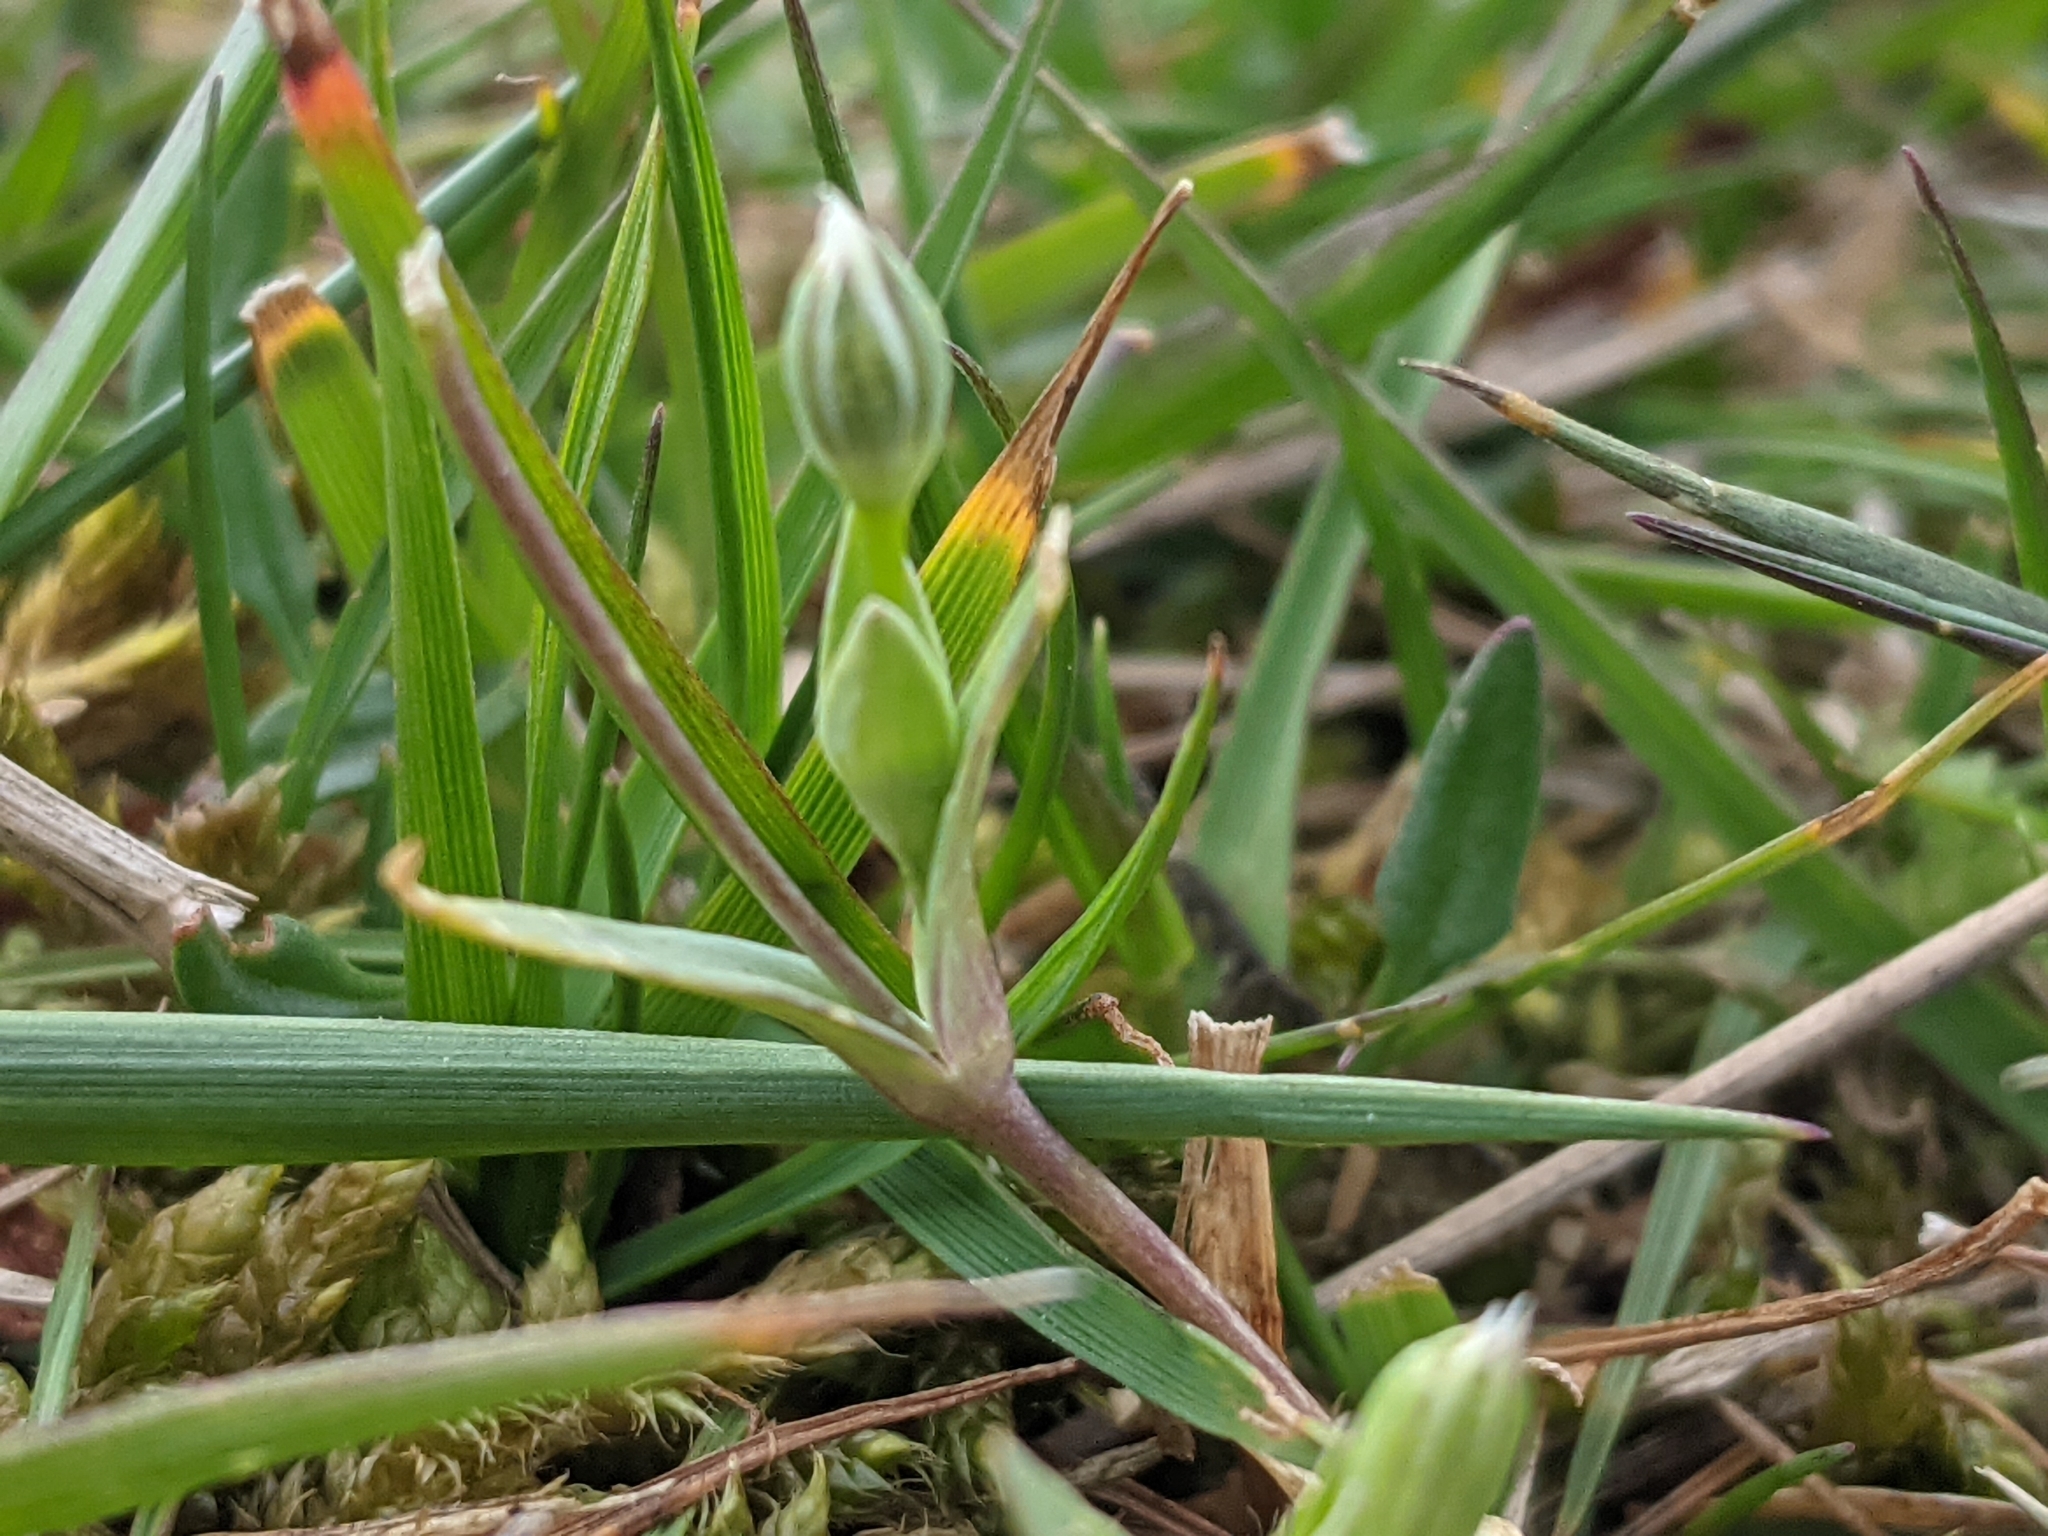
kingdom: Plantae
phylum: Tracheophyta
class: Magnoliopsida
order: Caryophyllales
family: Caryophyllaceae
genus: Moenchia
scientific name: Moenchia erecta
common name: Upright chickweed
